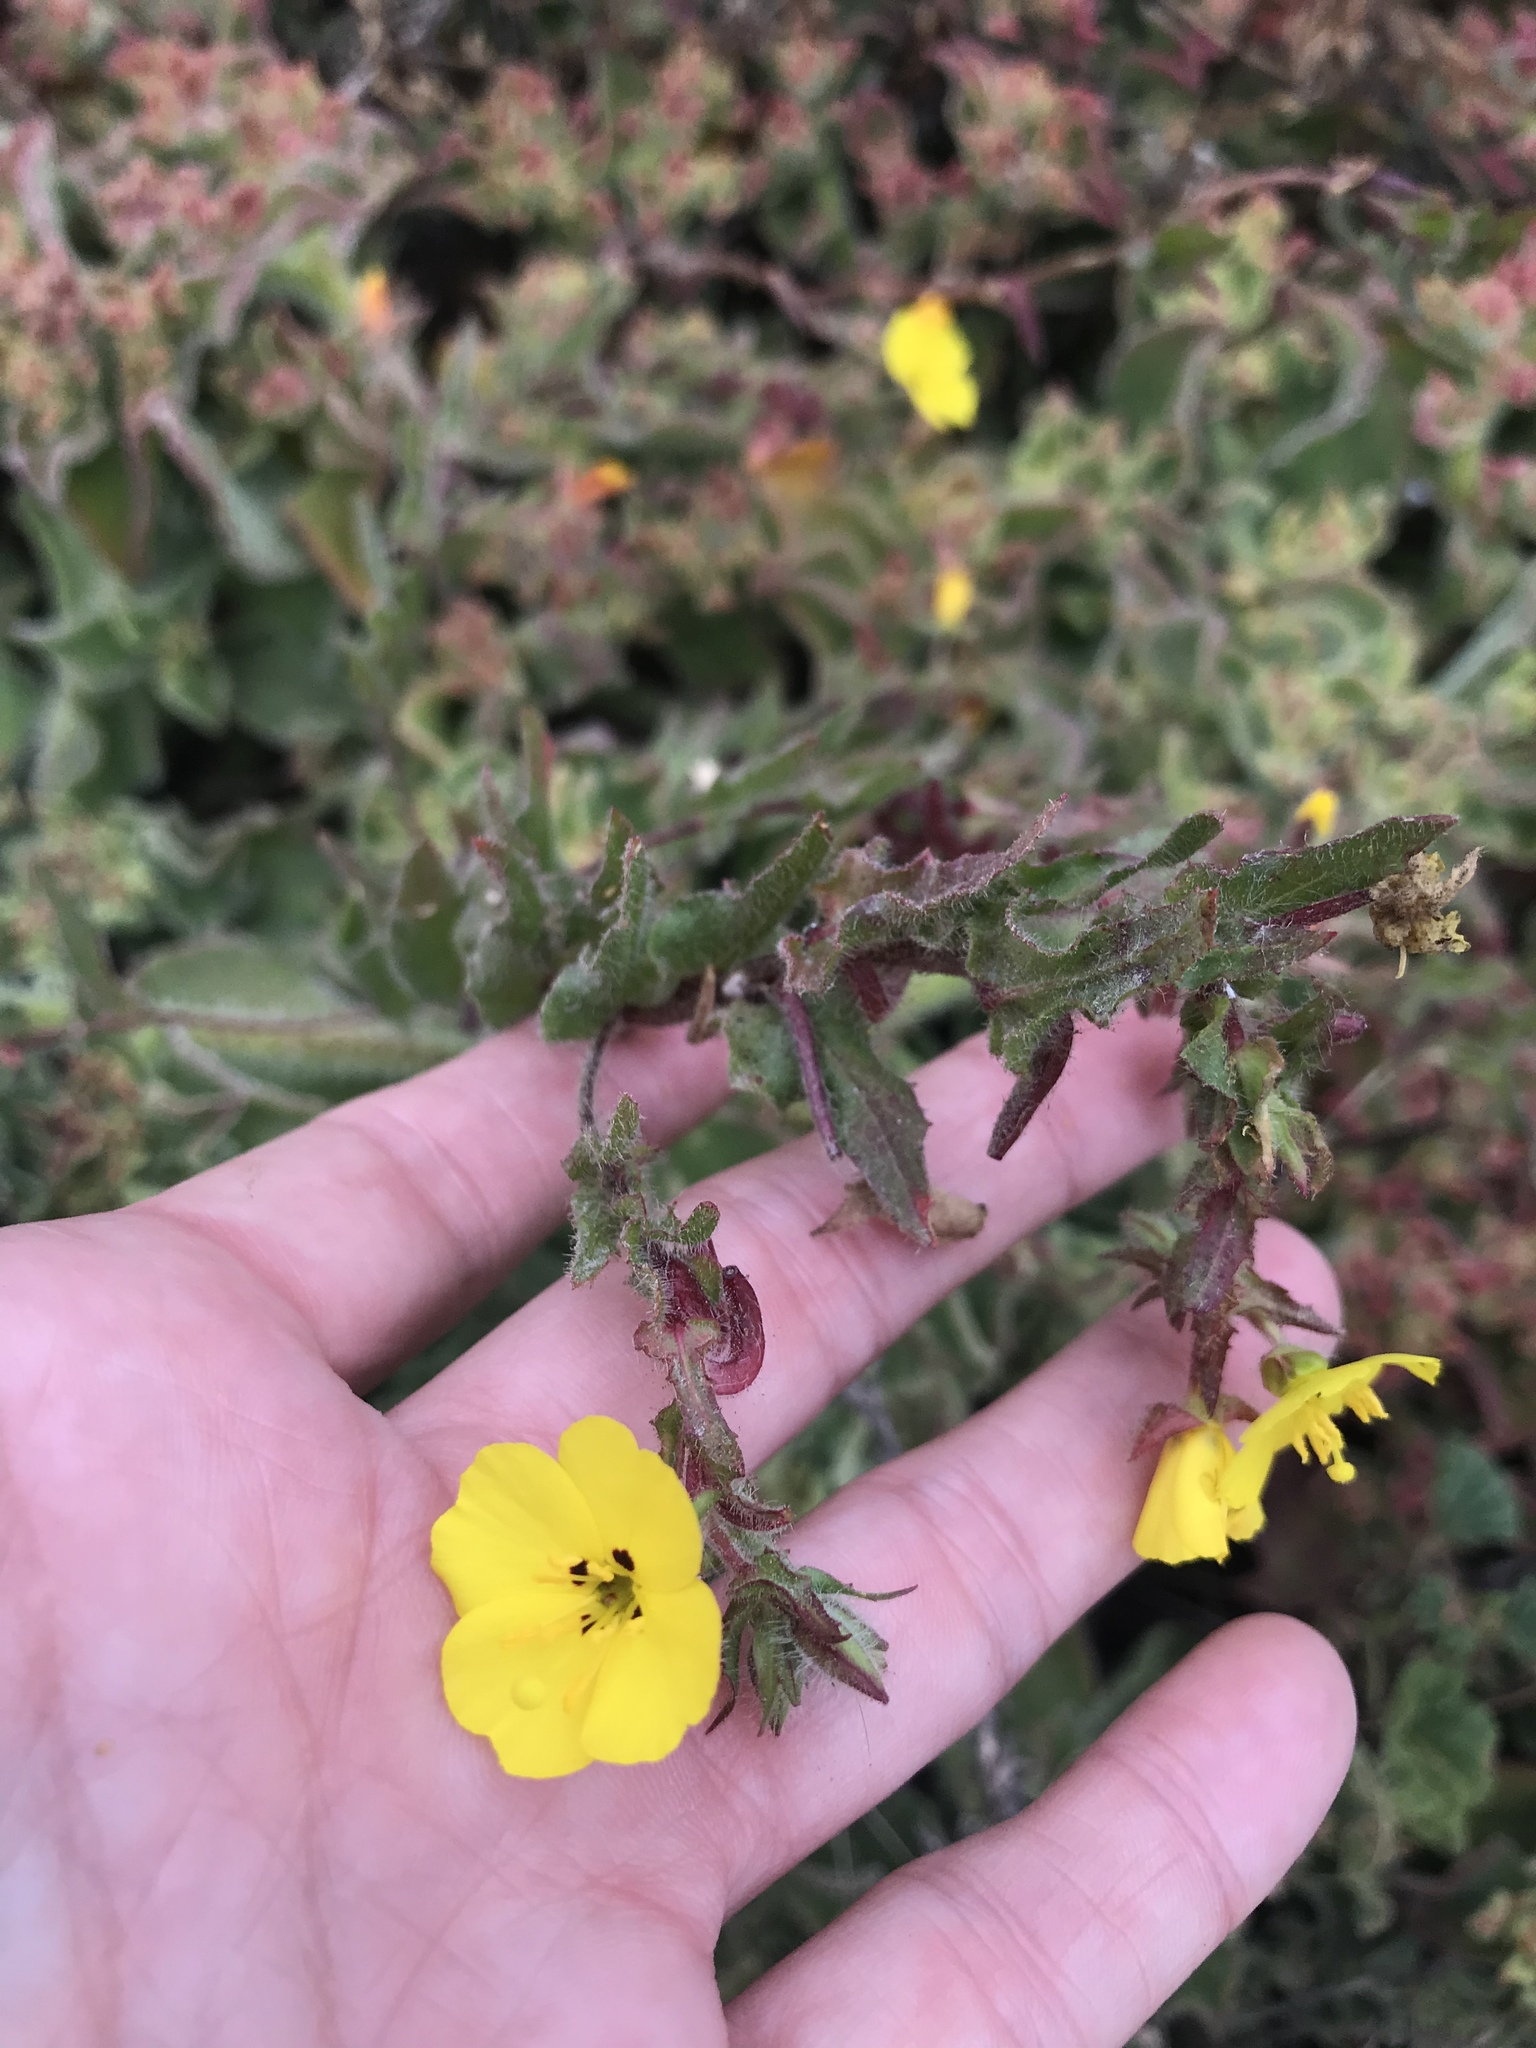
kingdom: Plantae
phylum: Tracheophyta
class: Magnoliopsida
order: Myrtales
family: Onagraceae
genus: Camissoniopsis
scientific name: Camissoniopsis lewisii
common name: Lewis' evening primrose
